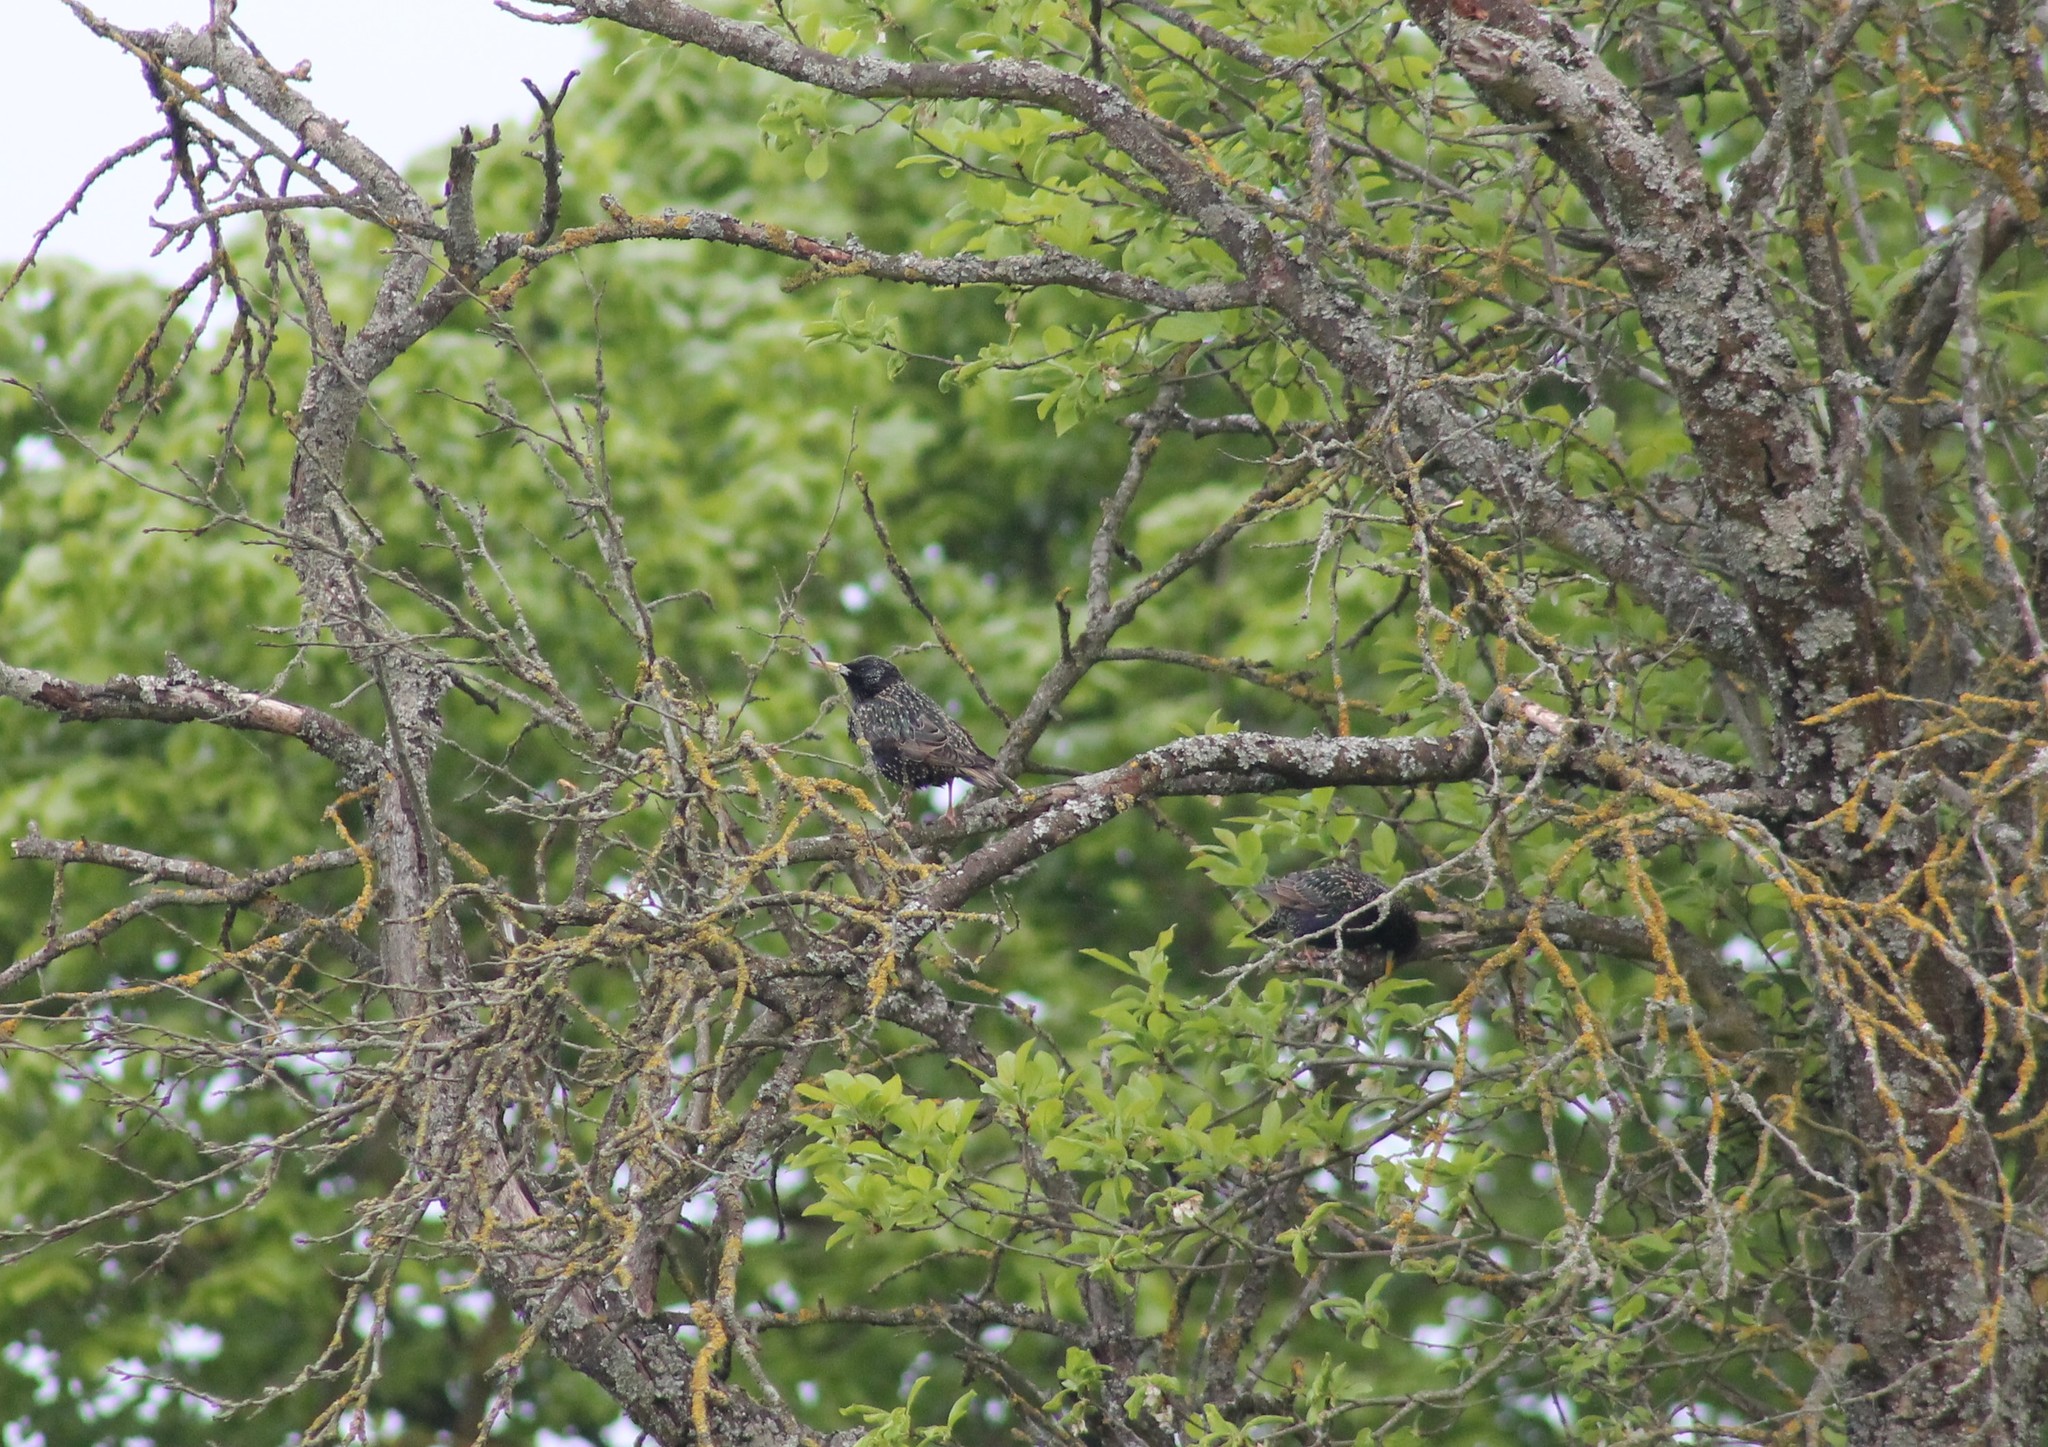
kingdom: Animalia
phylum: Chordata
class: Aves
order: Passeriformes
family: Sturnidae
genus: Sturnus
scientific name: Sturnus vulgaris
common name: Common starling
